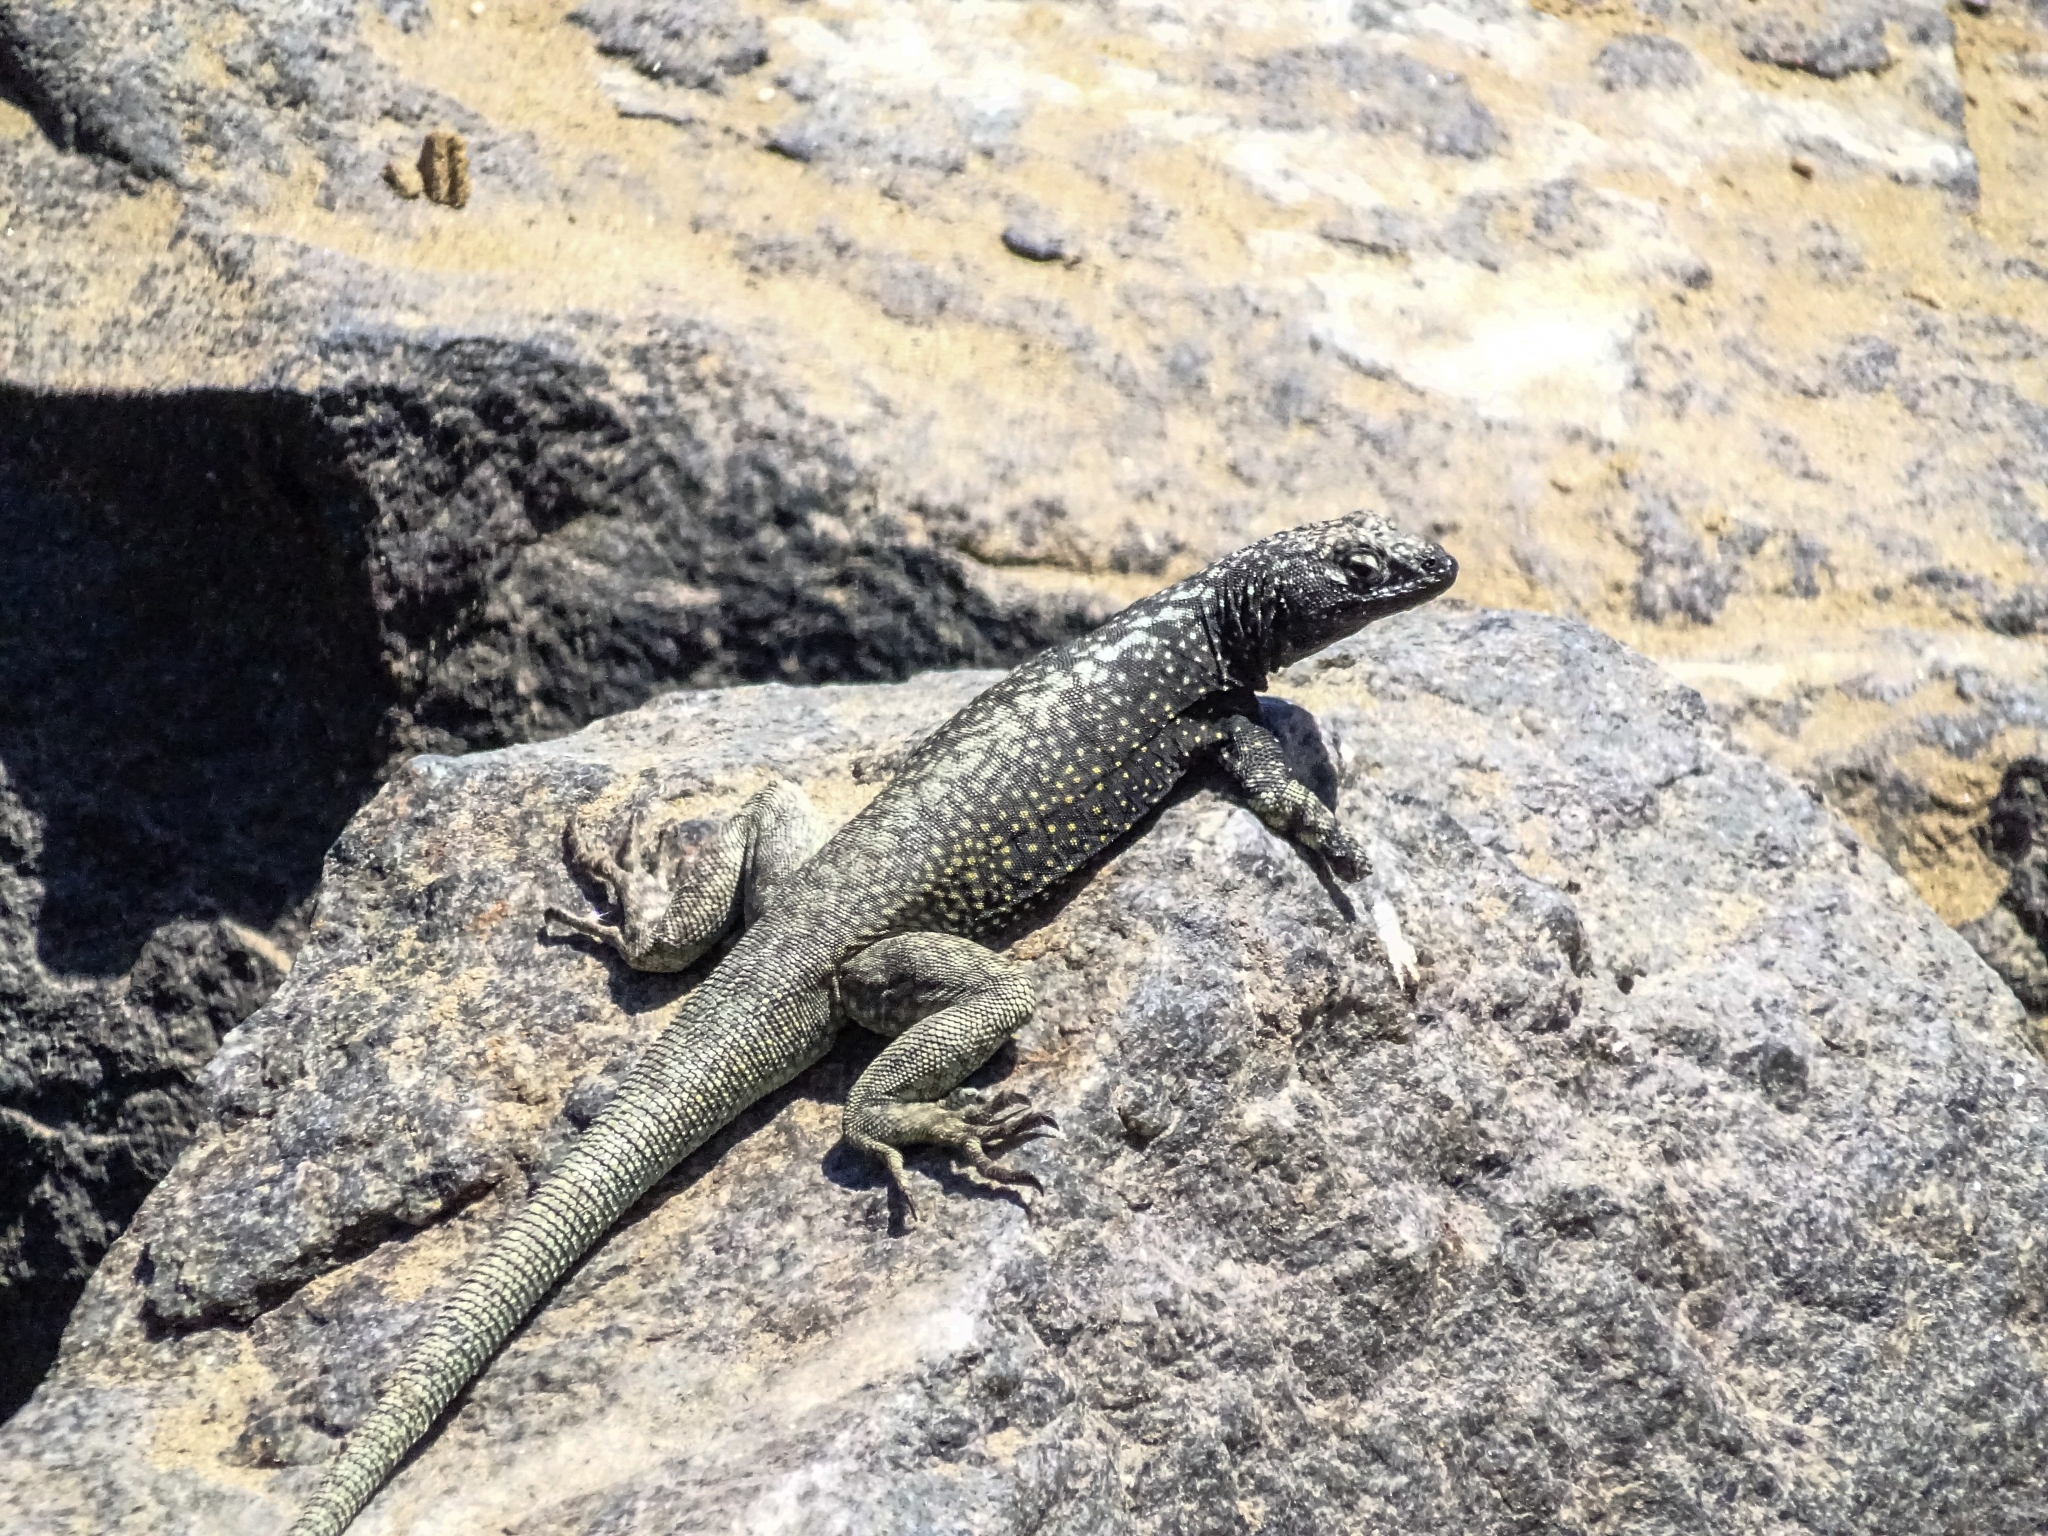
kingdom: Animalia
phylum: Chordata
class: Squamata
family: Tropiduridae
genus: Microlophus
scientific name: Microlophus atacamensis
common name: Atacamen pacific iguana
